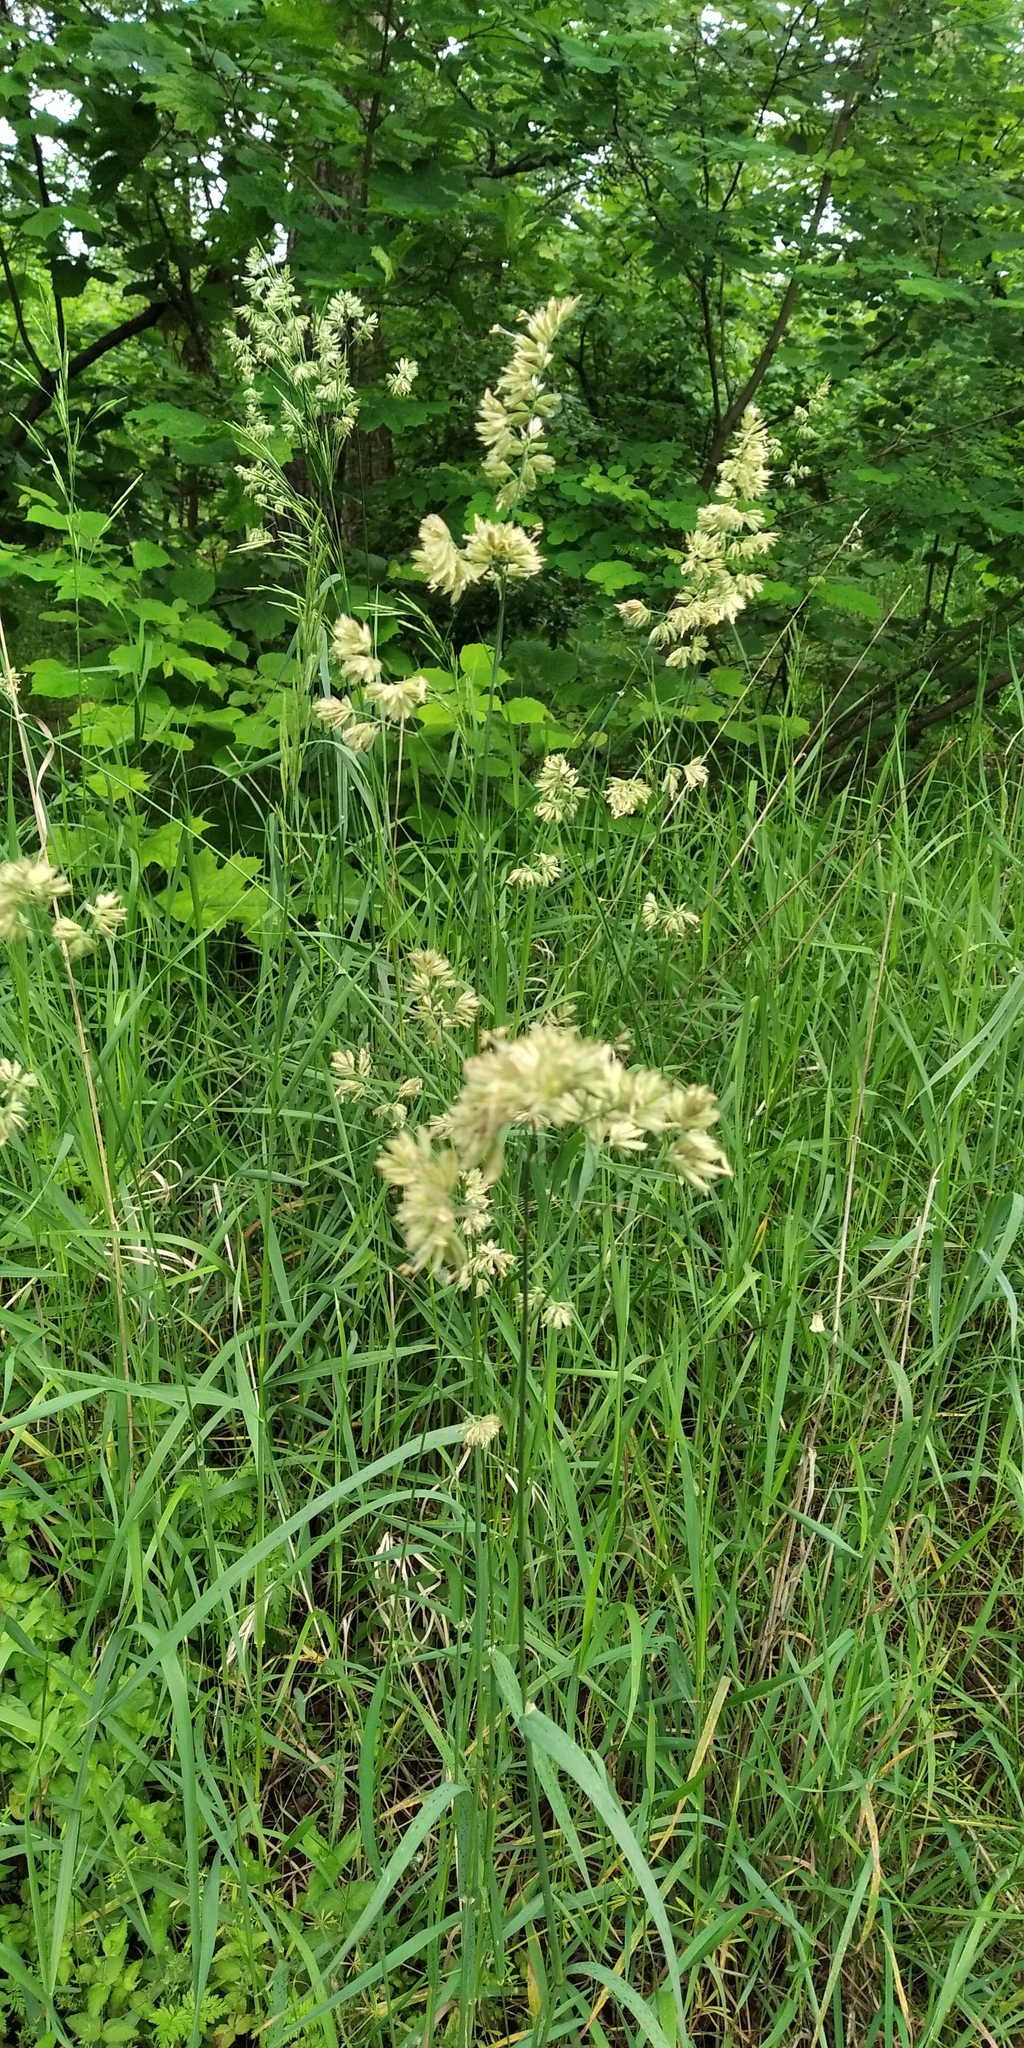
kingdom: Plantae
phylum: Tracheophyta
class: Liliopsida
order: Poales
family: Poaceae
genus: Dactylis
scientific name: Dactylis glomerata
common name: Orchardgrass
